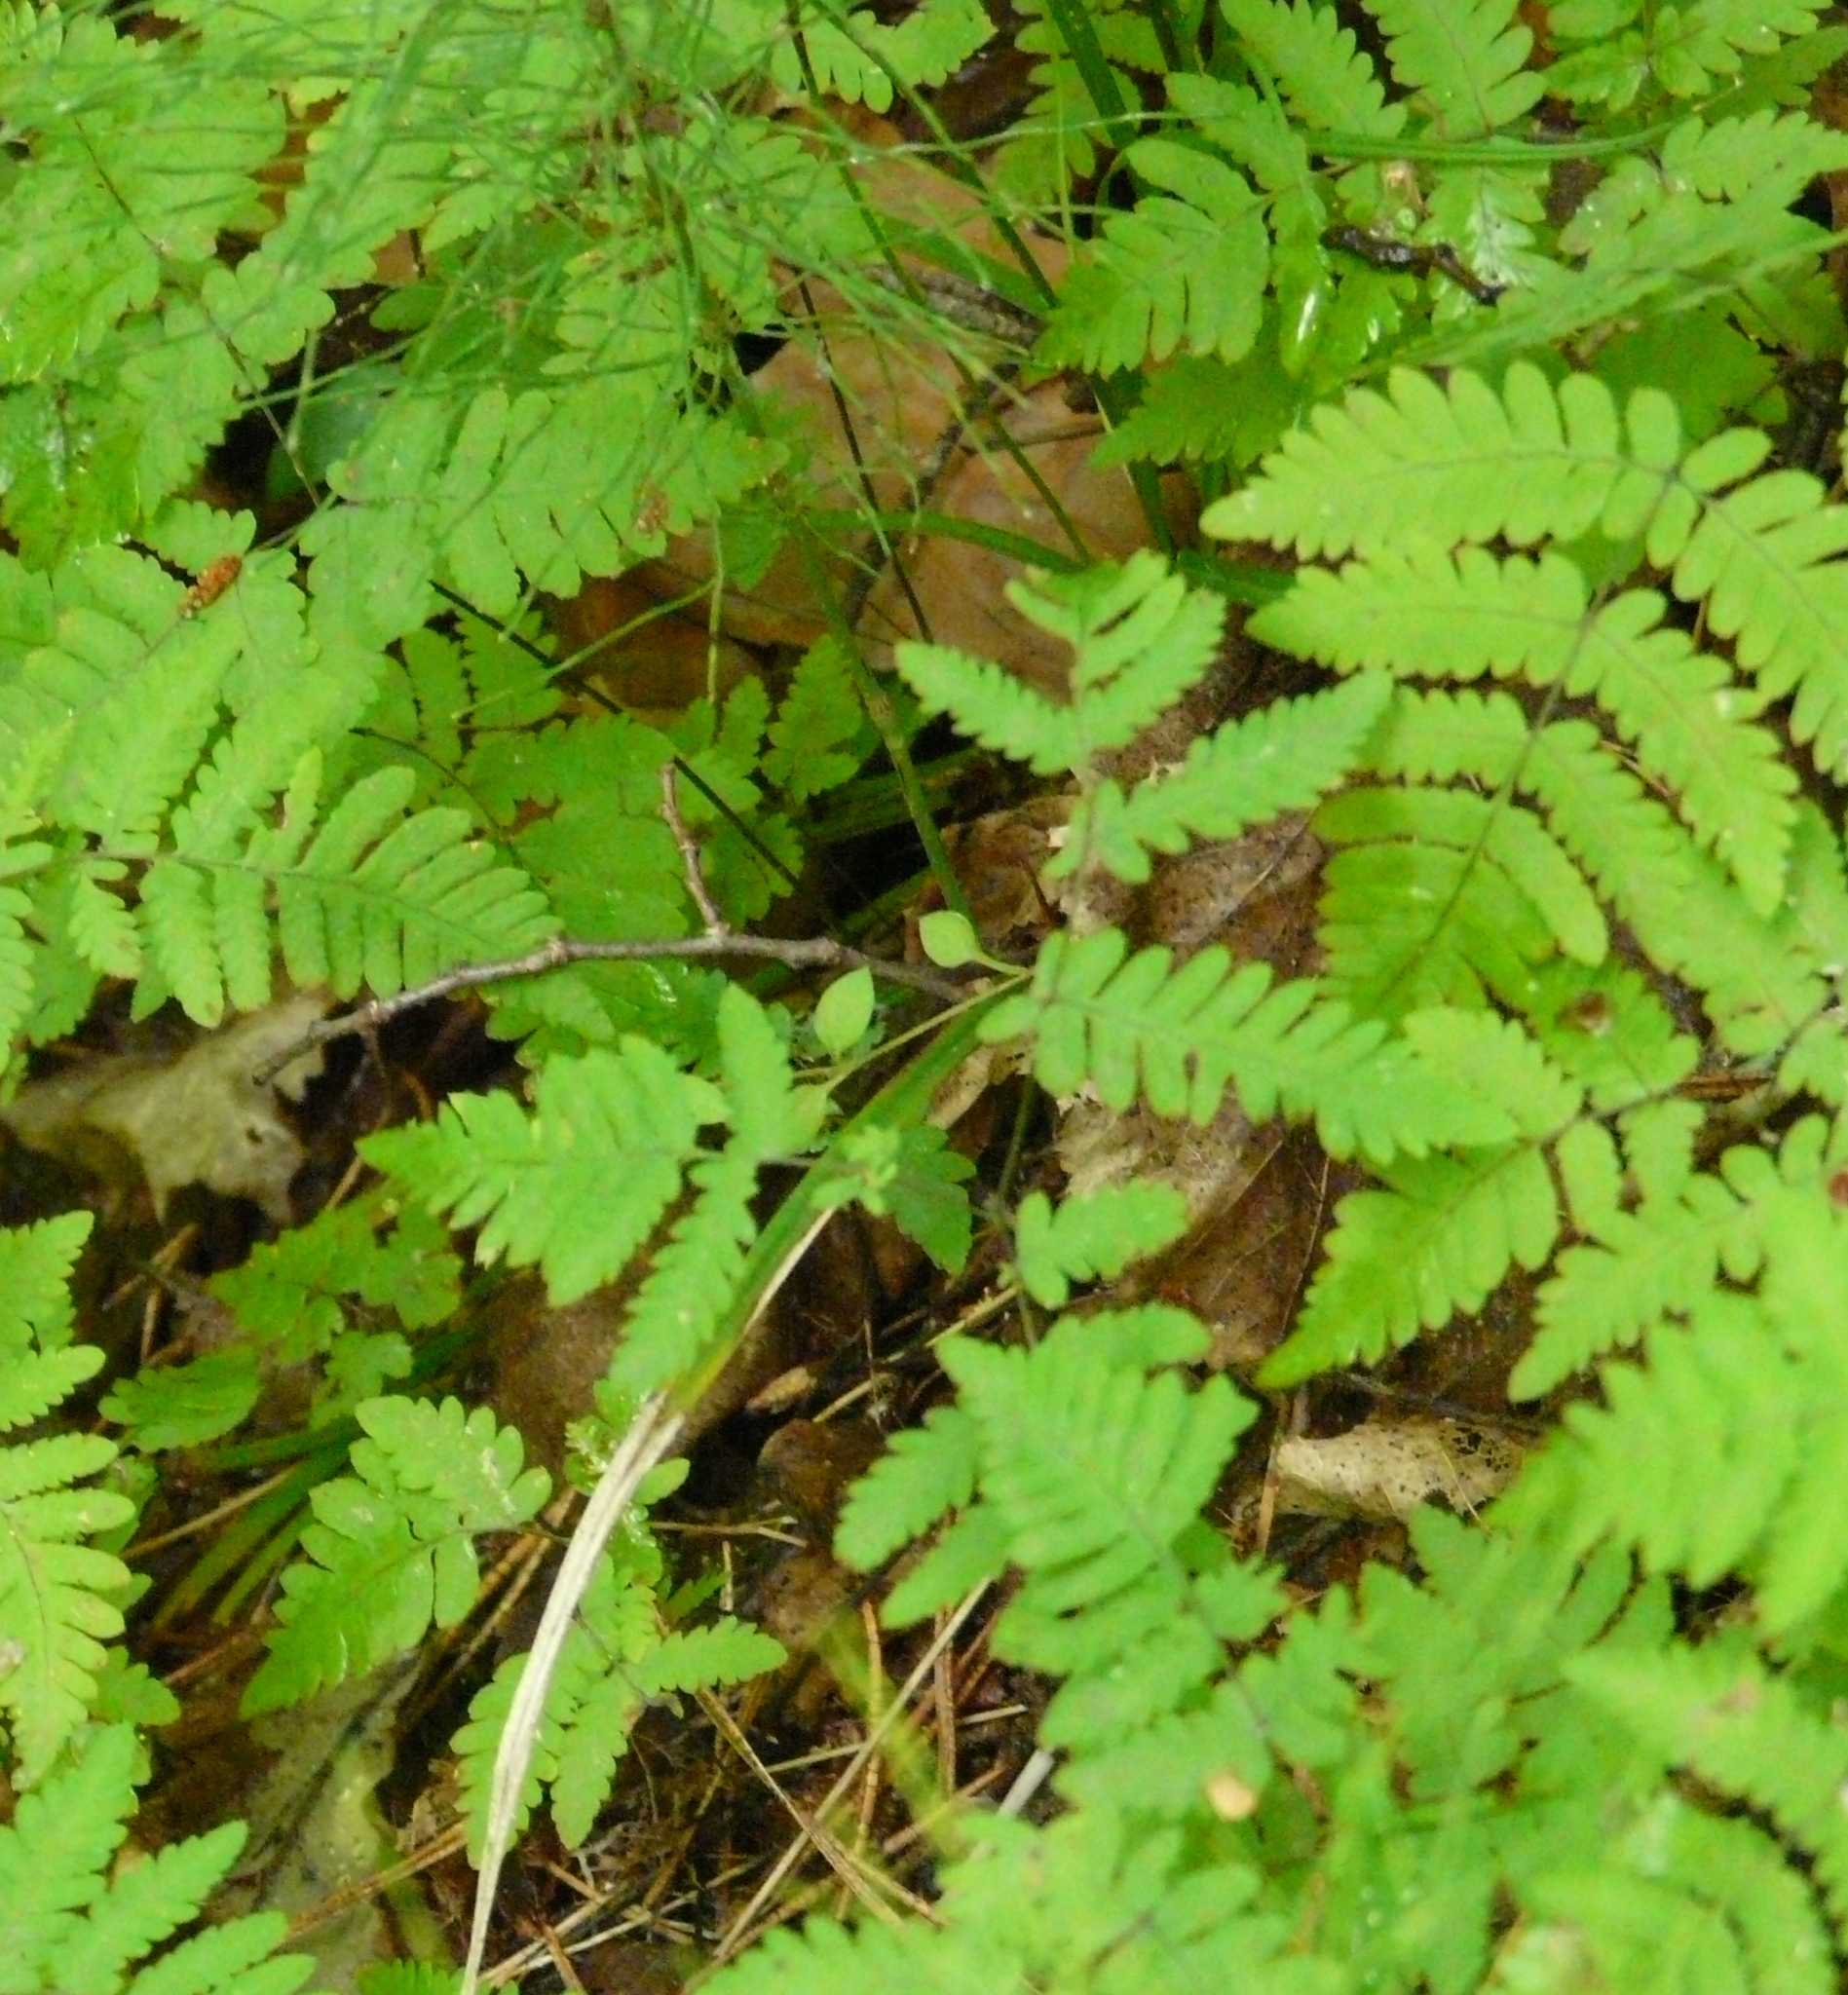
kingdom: Plantae
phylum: Tracheophyta
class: Polypodiopsida
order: Polypodiales
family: Cystopteridaceae
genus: Gymnocarpium
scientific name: Gymnocarpium dryopteris
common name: Oak fern
